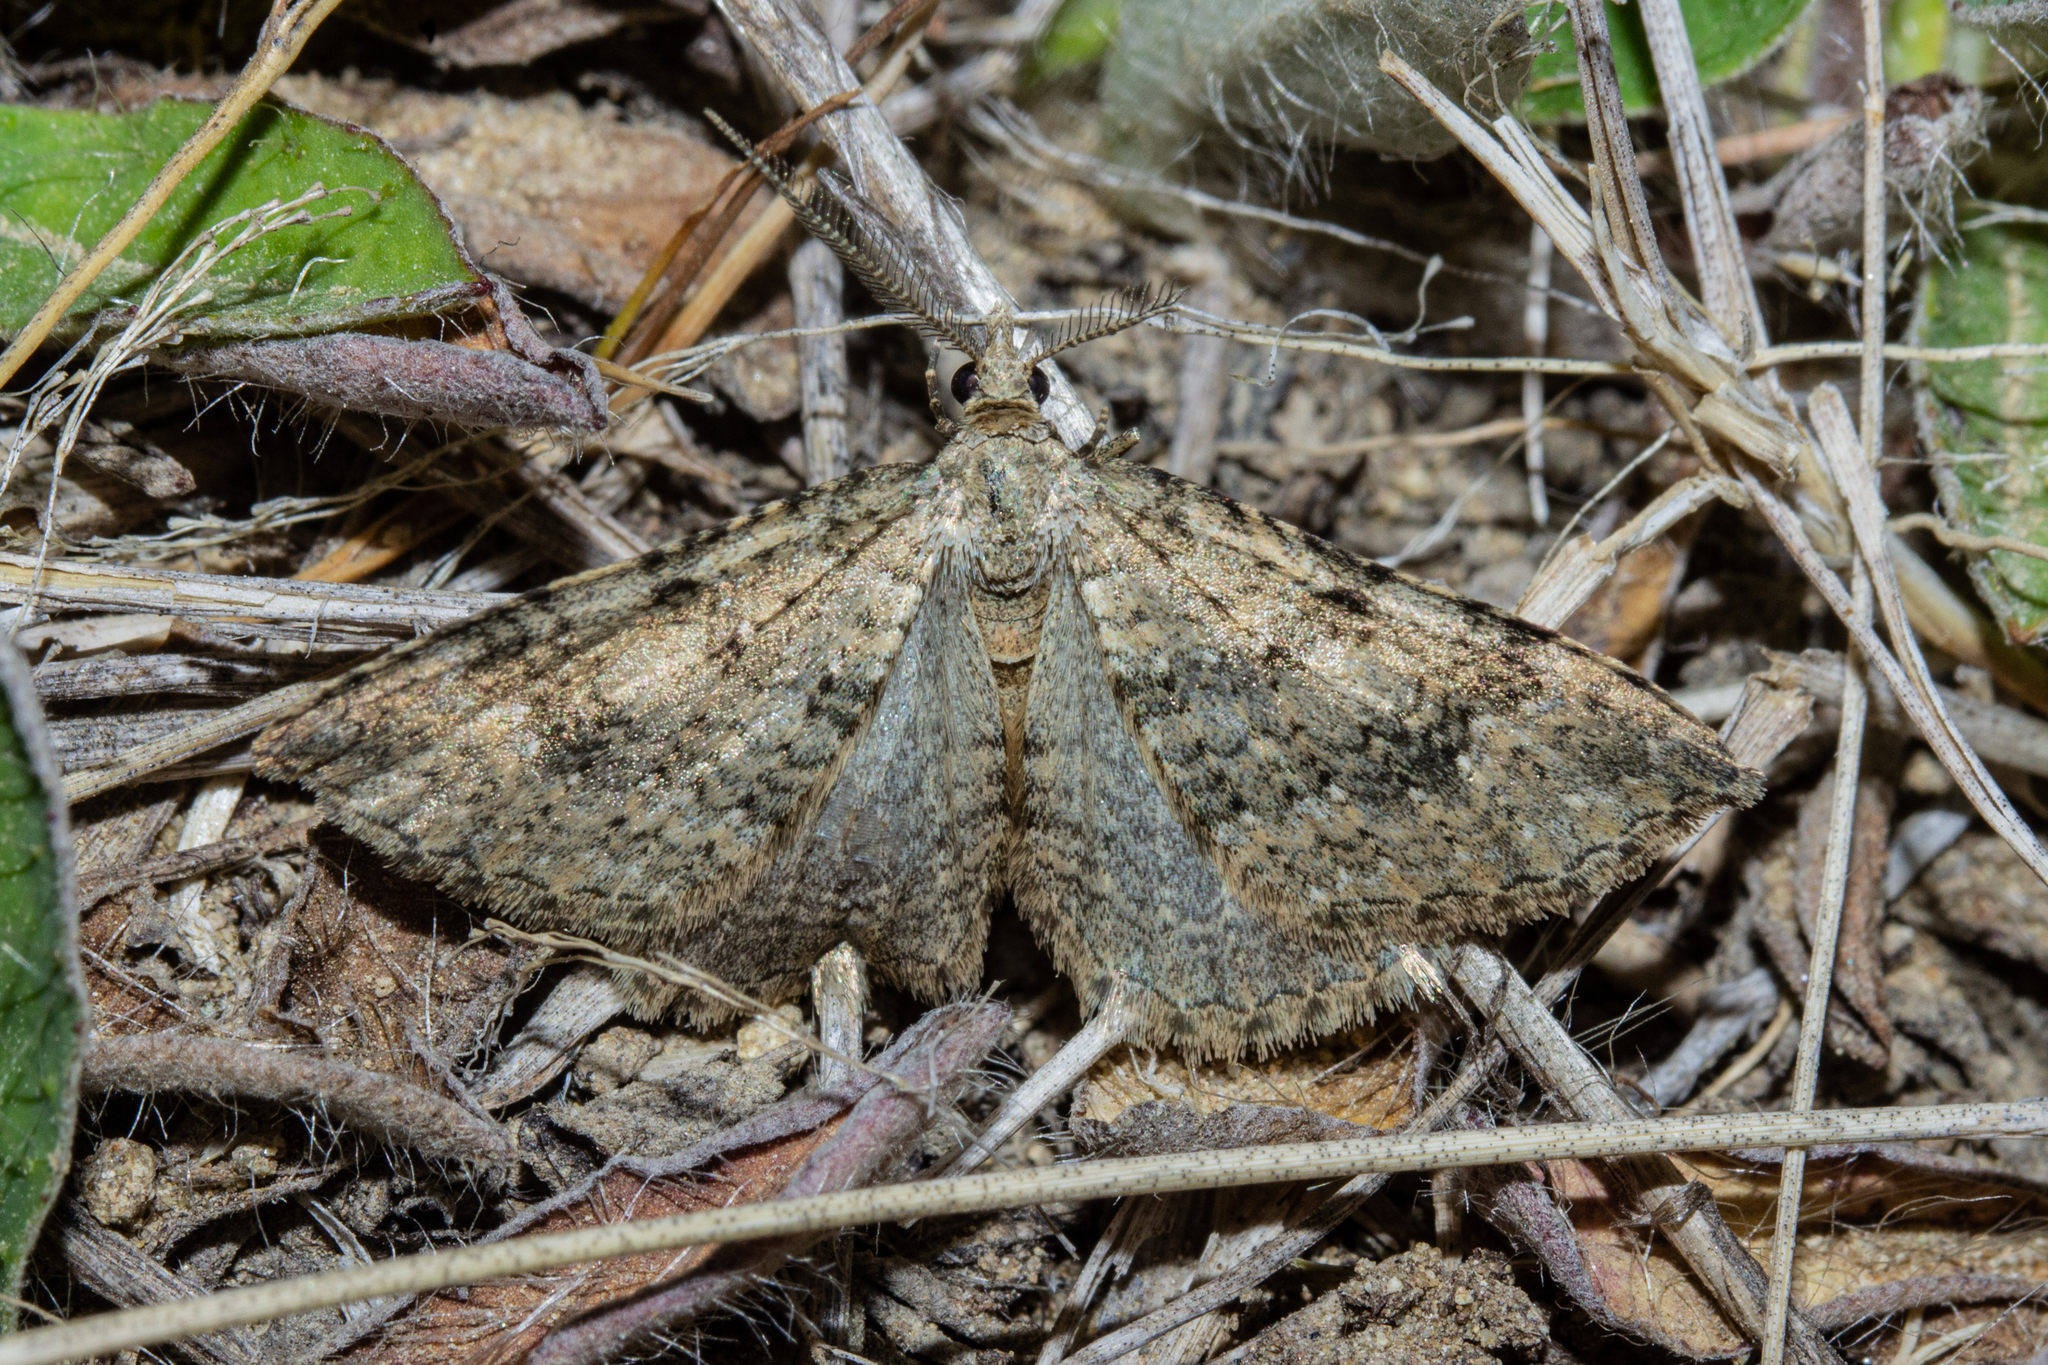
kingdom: Animalia
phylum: Arthropoda
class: Insecta
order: Lepidoptera
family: Geometridae
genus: Helastia
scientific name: Helastia corcularia
